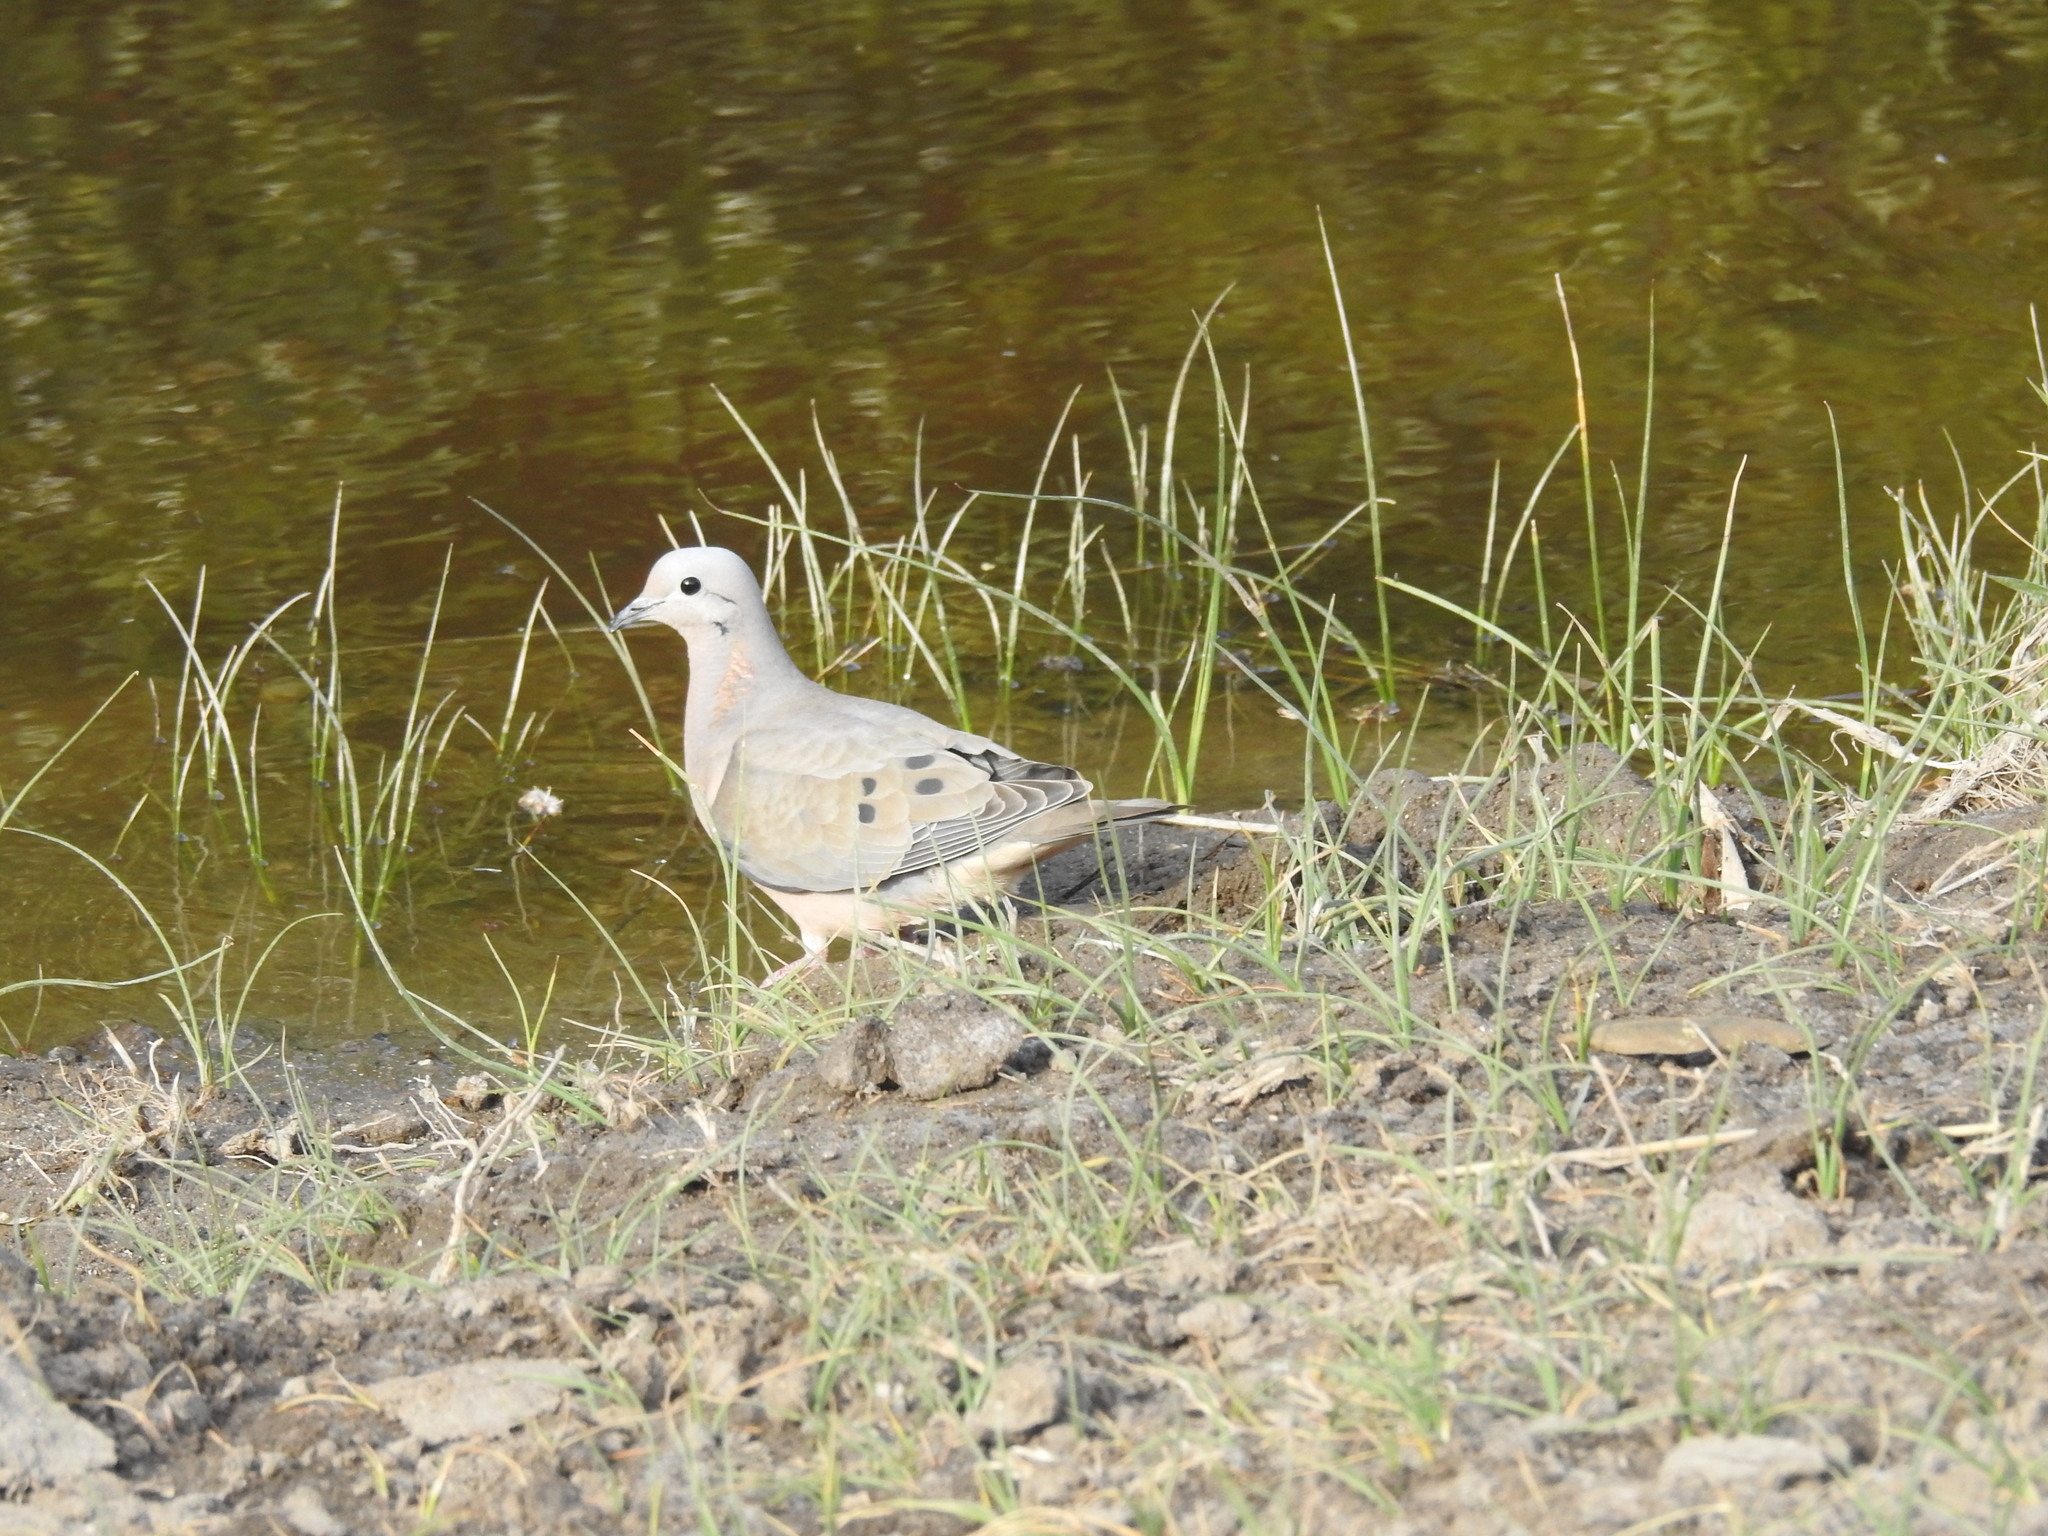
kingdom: Animalia
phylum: Chordata
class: Aves
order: Columbiformes
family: Columbidae
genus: Zenaida
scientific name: Zenaida auriculata
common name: Eared dove
